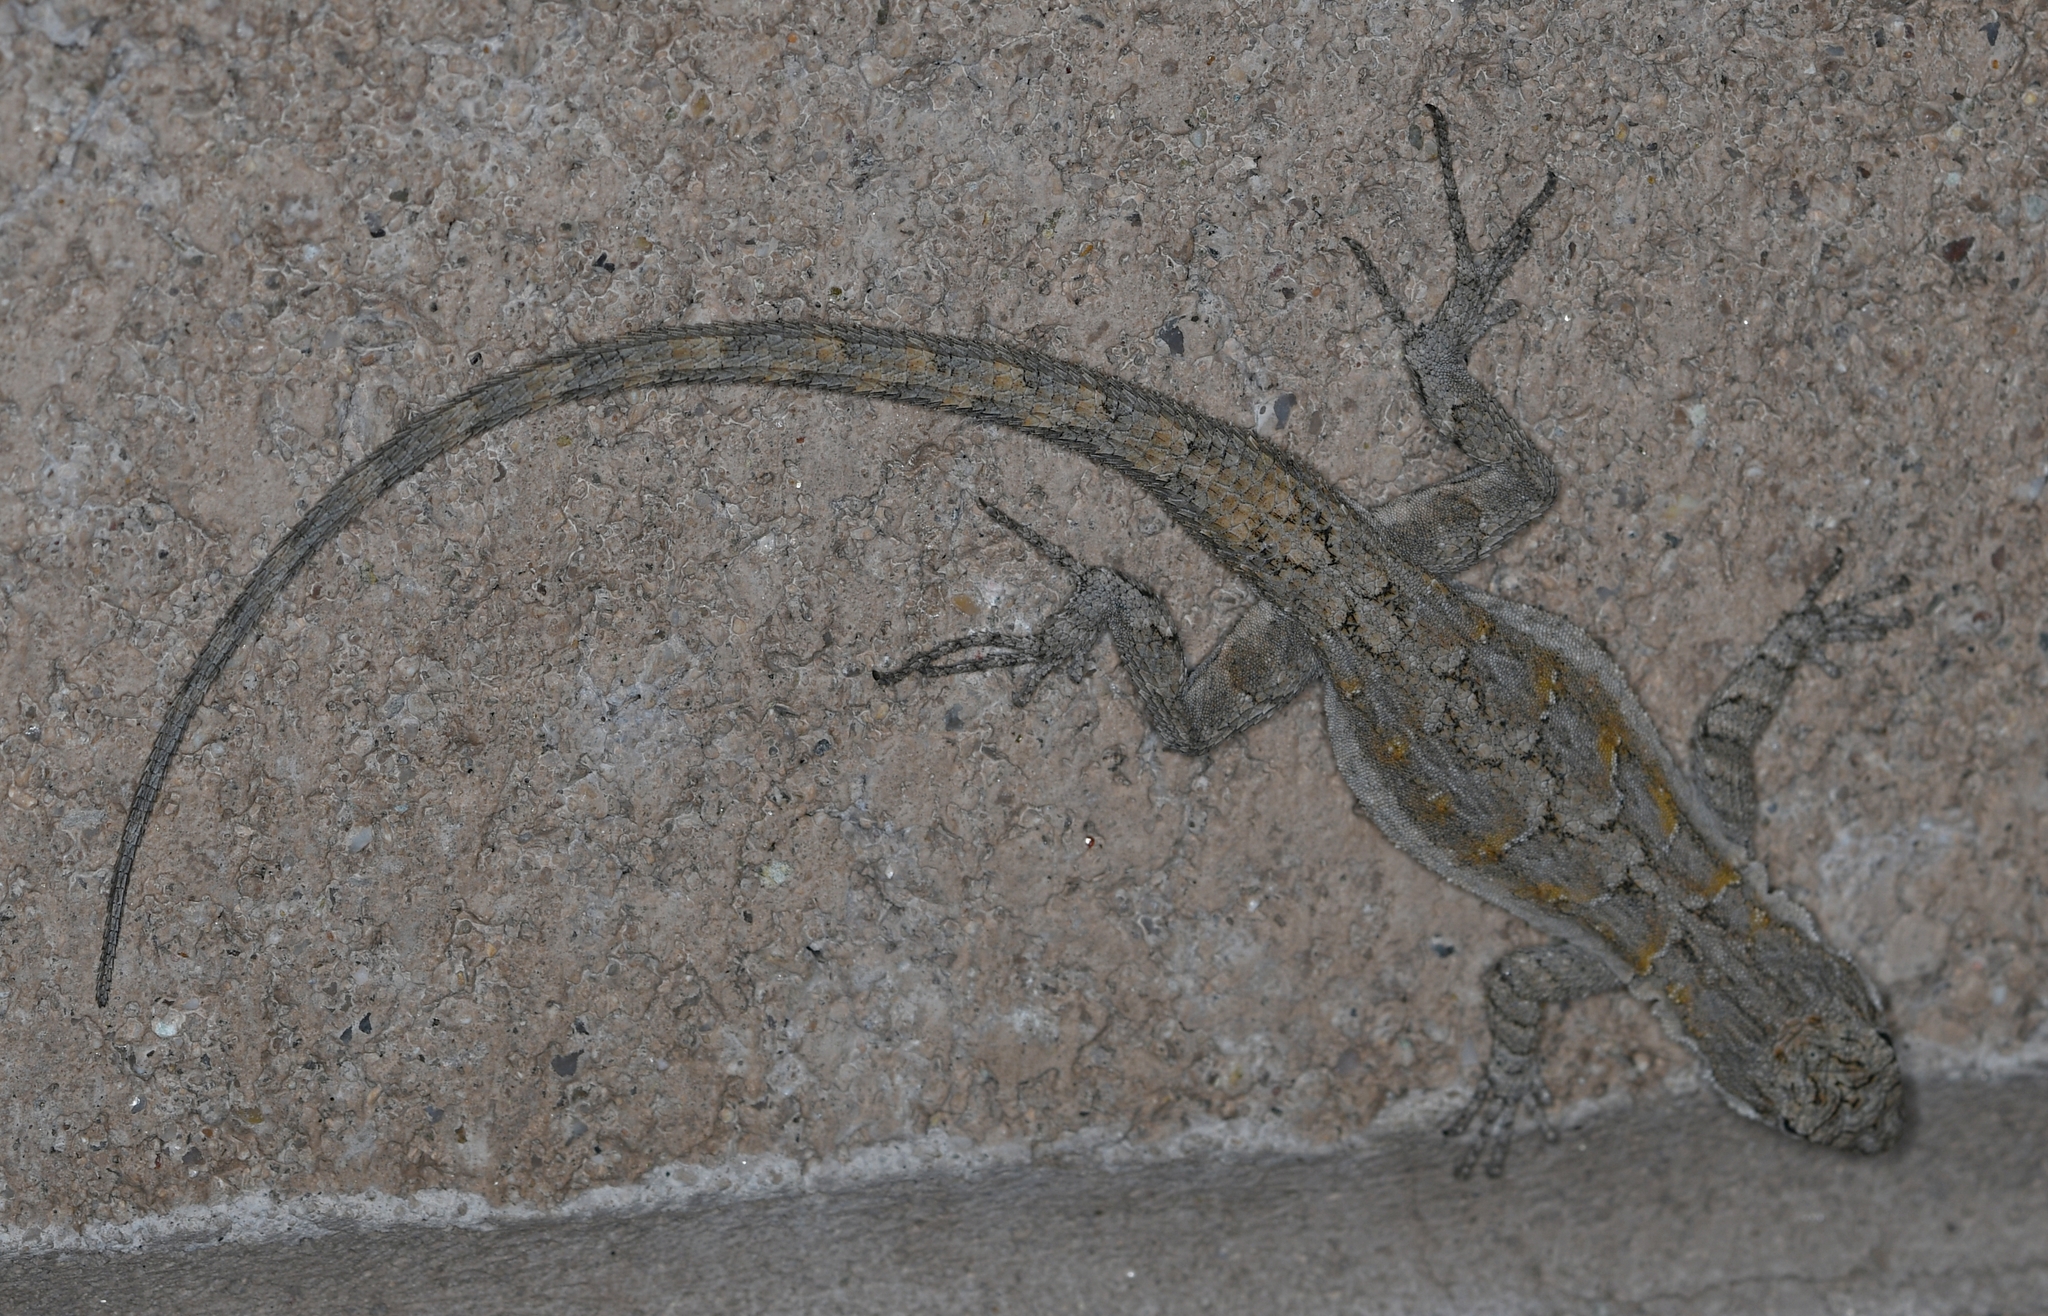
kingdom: Animalia
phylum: Chordata
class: Squamata
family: Phrynosomatidae
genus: Urosaurus
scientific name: Urosaurus ornatus
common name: Ornate tree lizard
